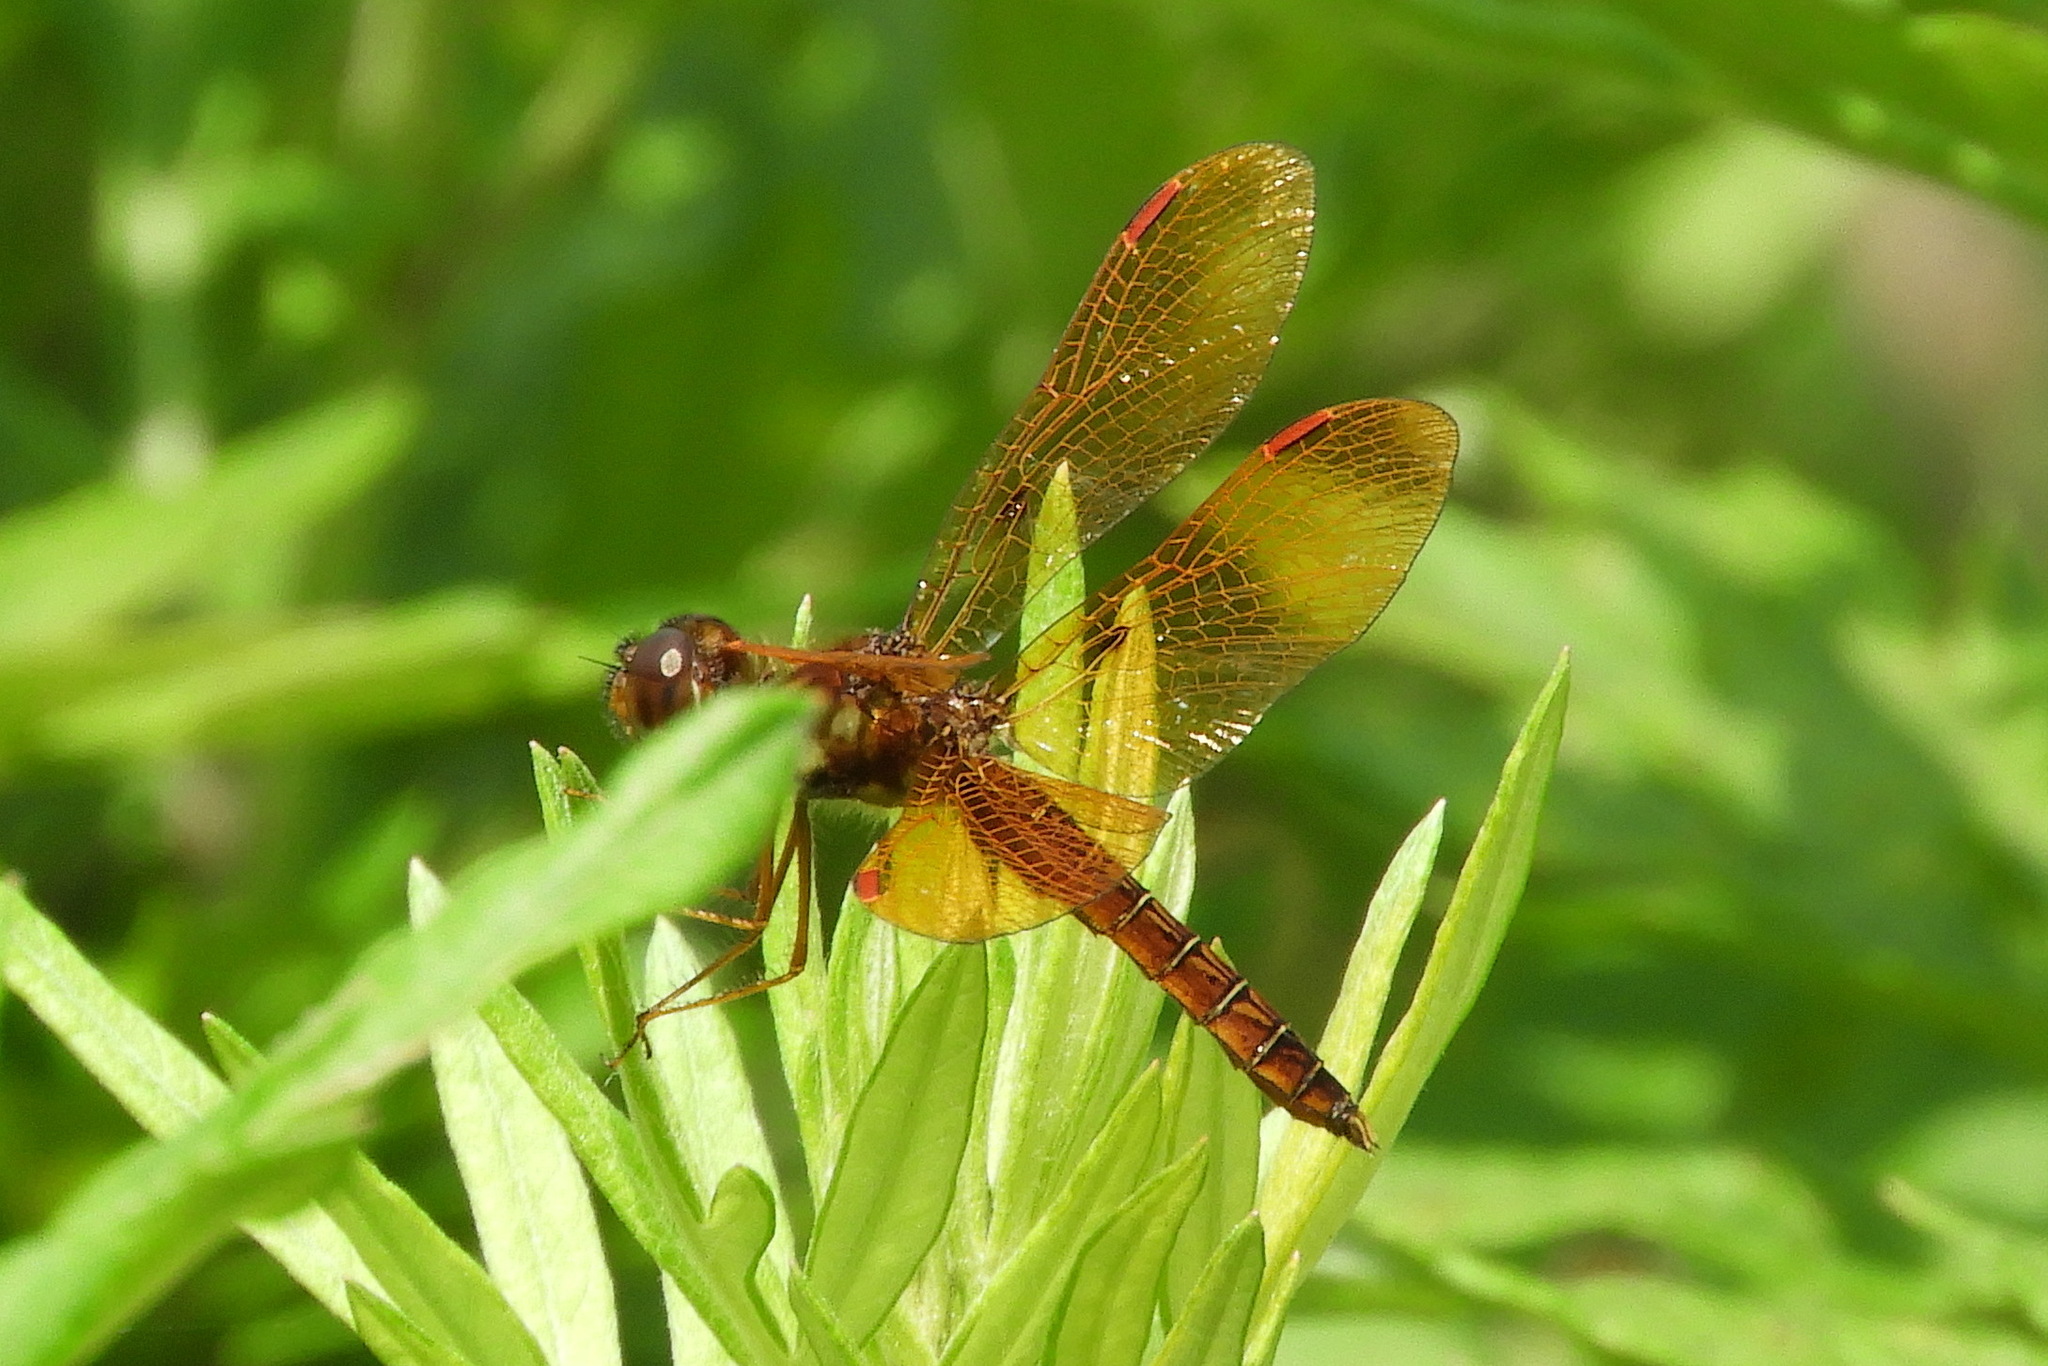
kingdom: Animalia
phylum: Arthropoda
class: Insecta
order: Odonata
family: Libellulidae
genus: Perithemis
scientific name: Perithemis tenera
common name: Eastern amberwing
